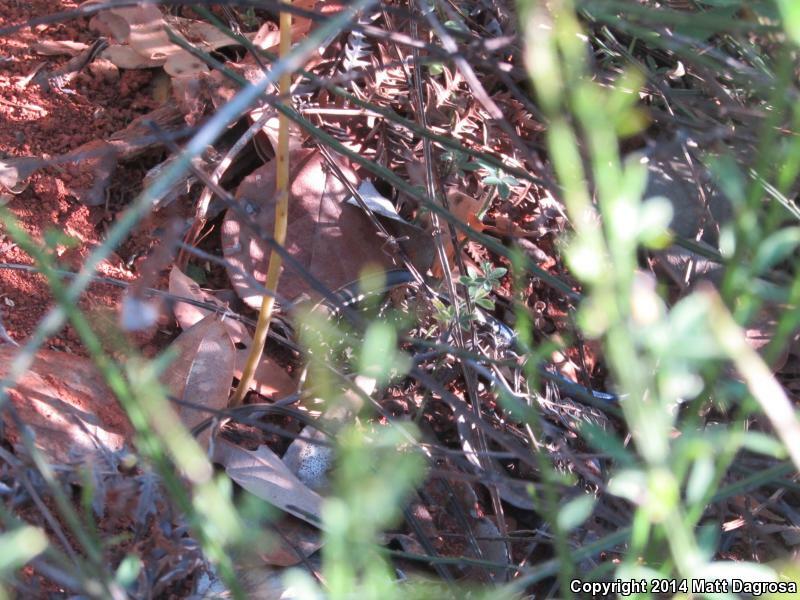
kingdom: Animalia
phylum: Chordata
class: Squamata
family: Scincidae
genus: Plestiodon
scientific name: Plestiodon skiltonianus
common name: Coronado island skink [interparietalis]
